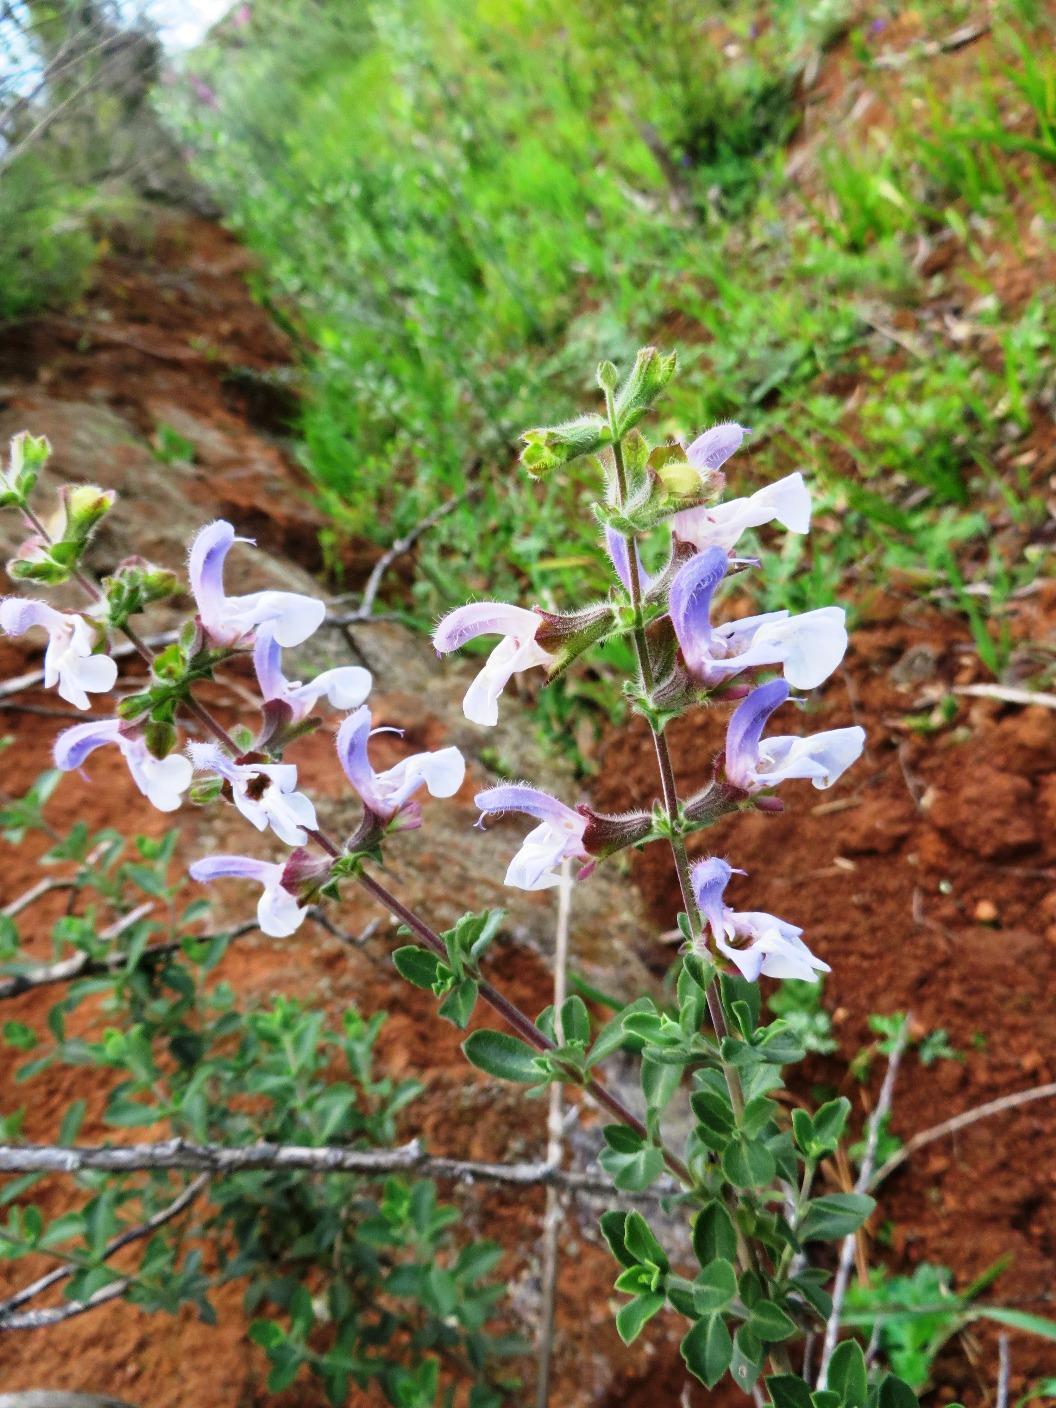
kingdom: Plantae
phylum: Tracheophyta
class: Magnoliopsida
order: Lamiales
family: Lamiaceae
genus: Salvia
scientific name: Salvia africana
